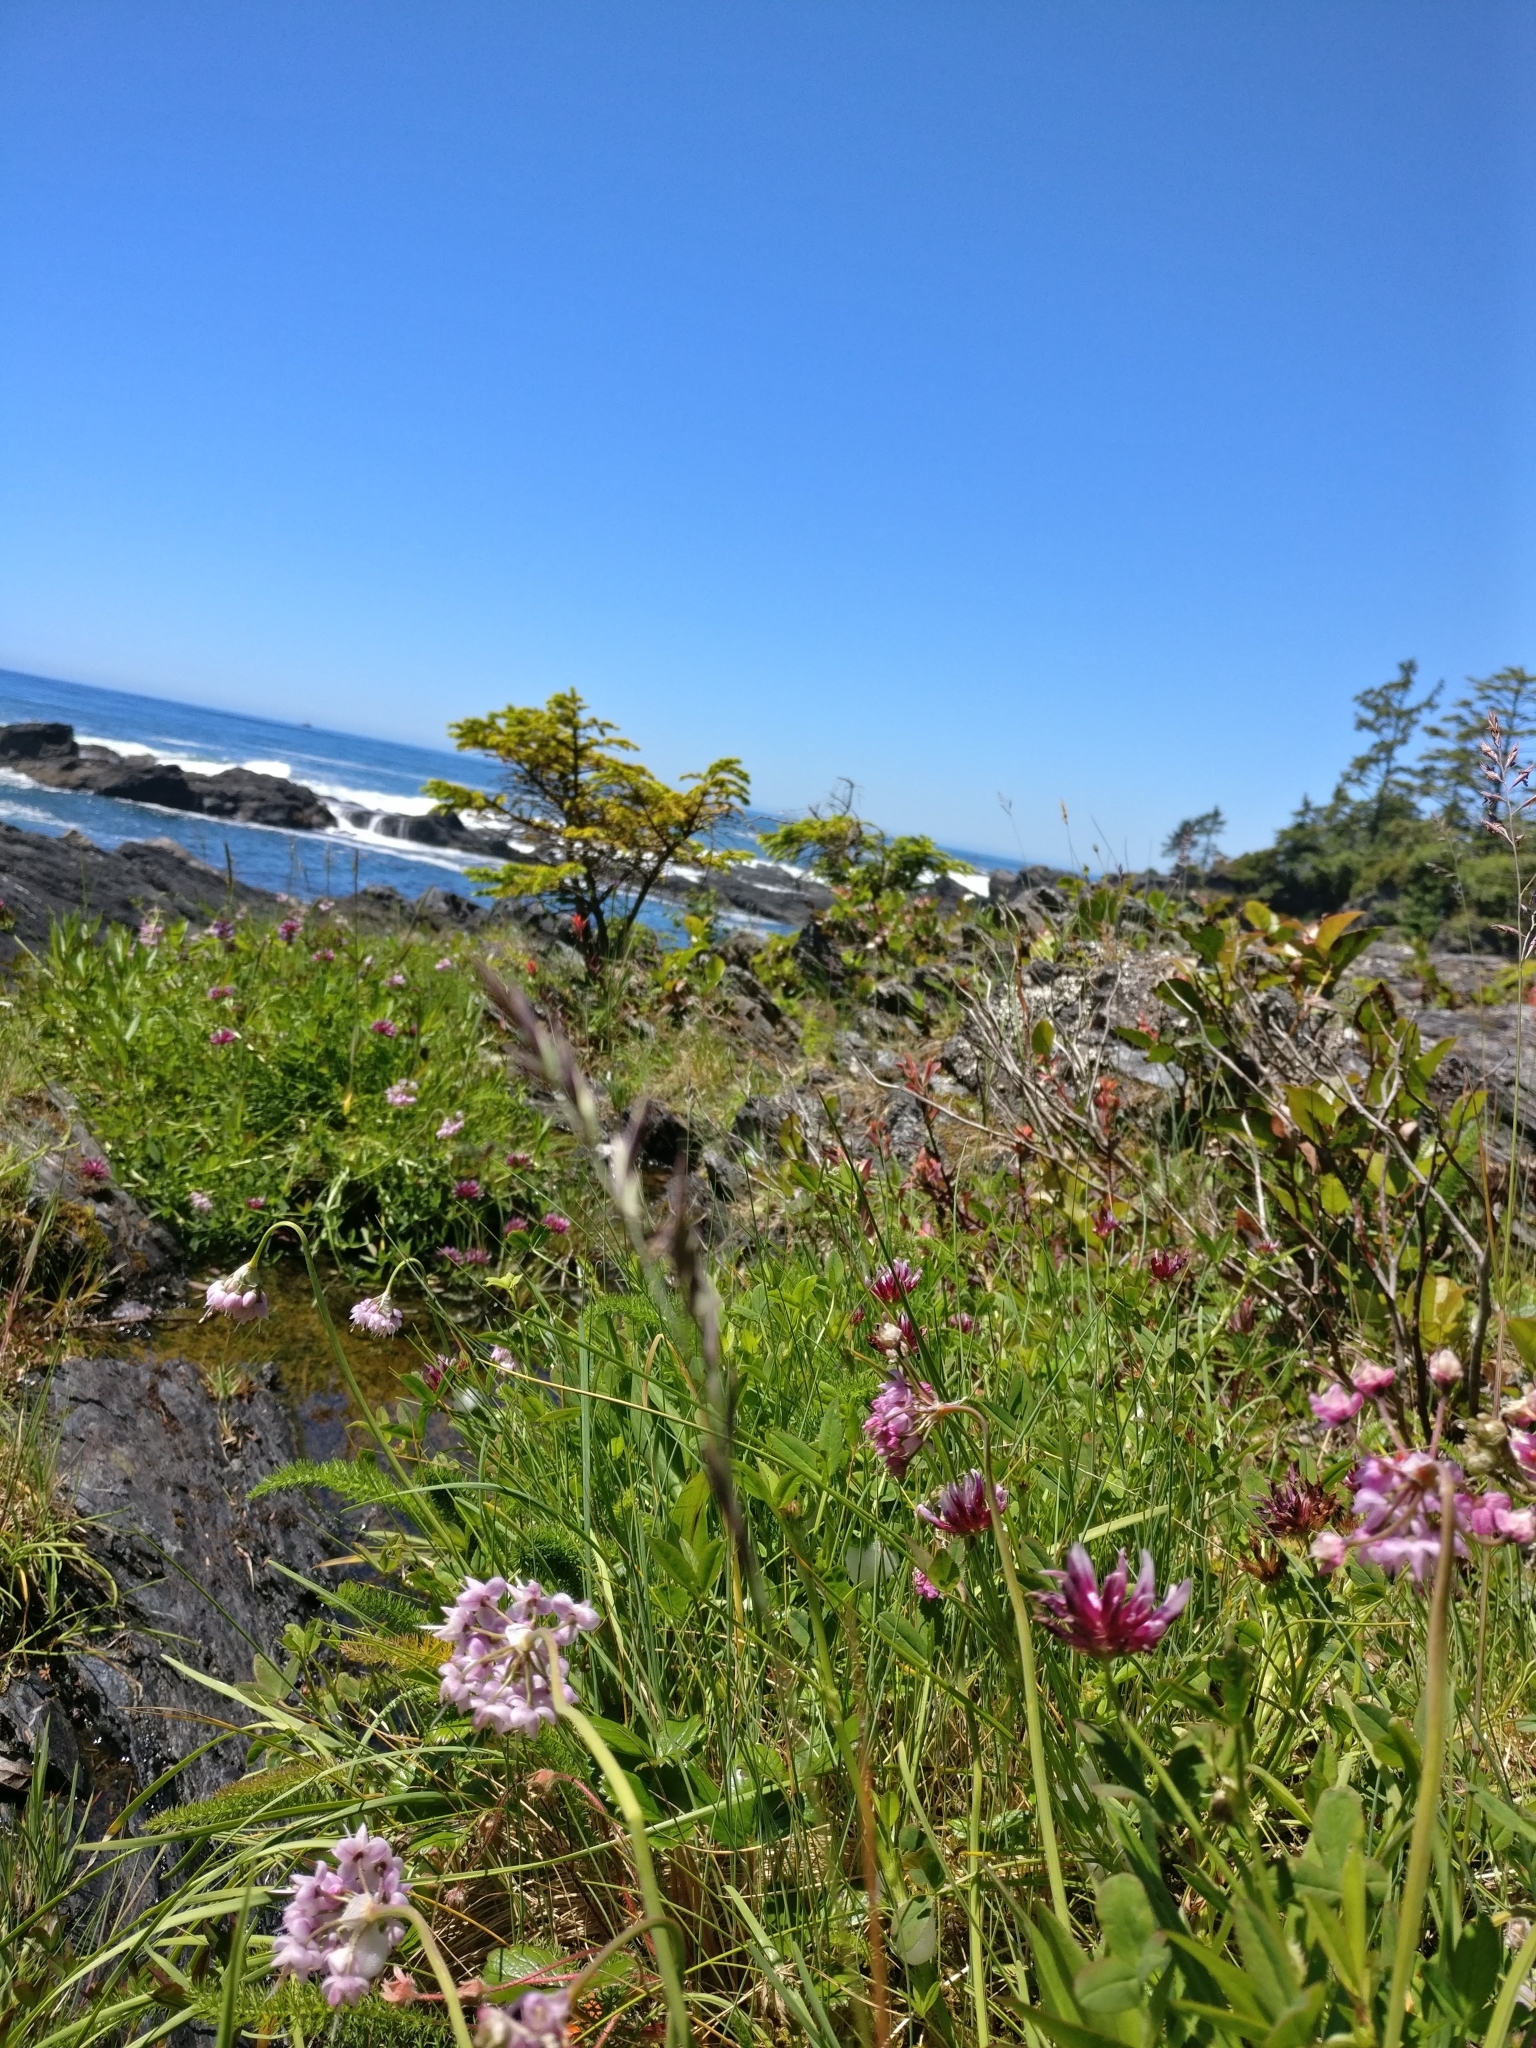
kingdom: Plantae
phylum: Tracheophyta
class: Liliopsida
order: Asparagales
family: Amaryllidaceae
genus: Allium
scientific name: Allium cernuum
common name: Nodding onion
